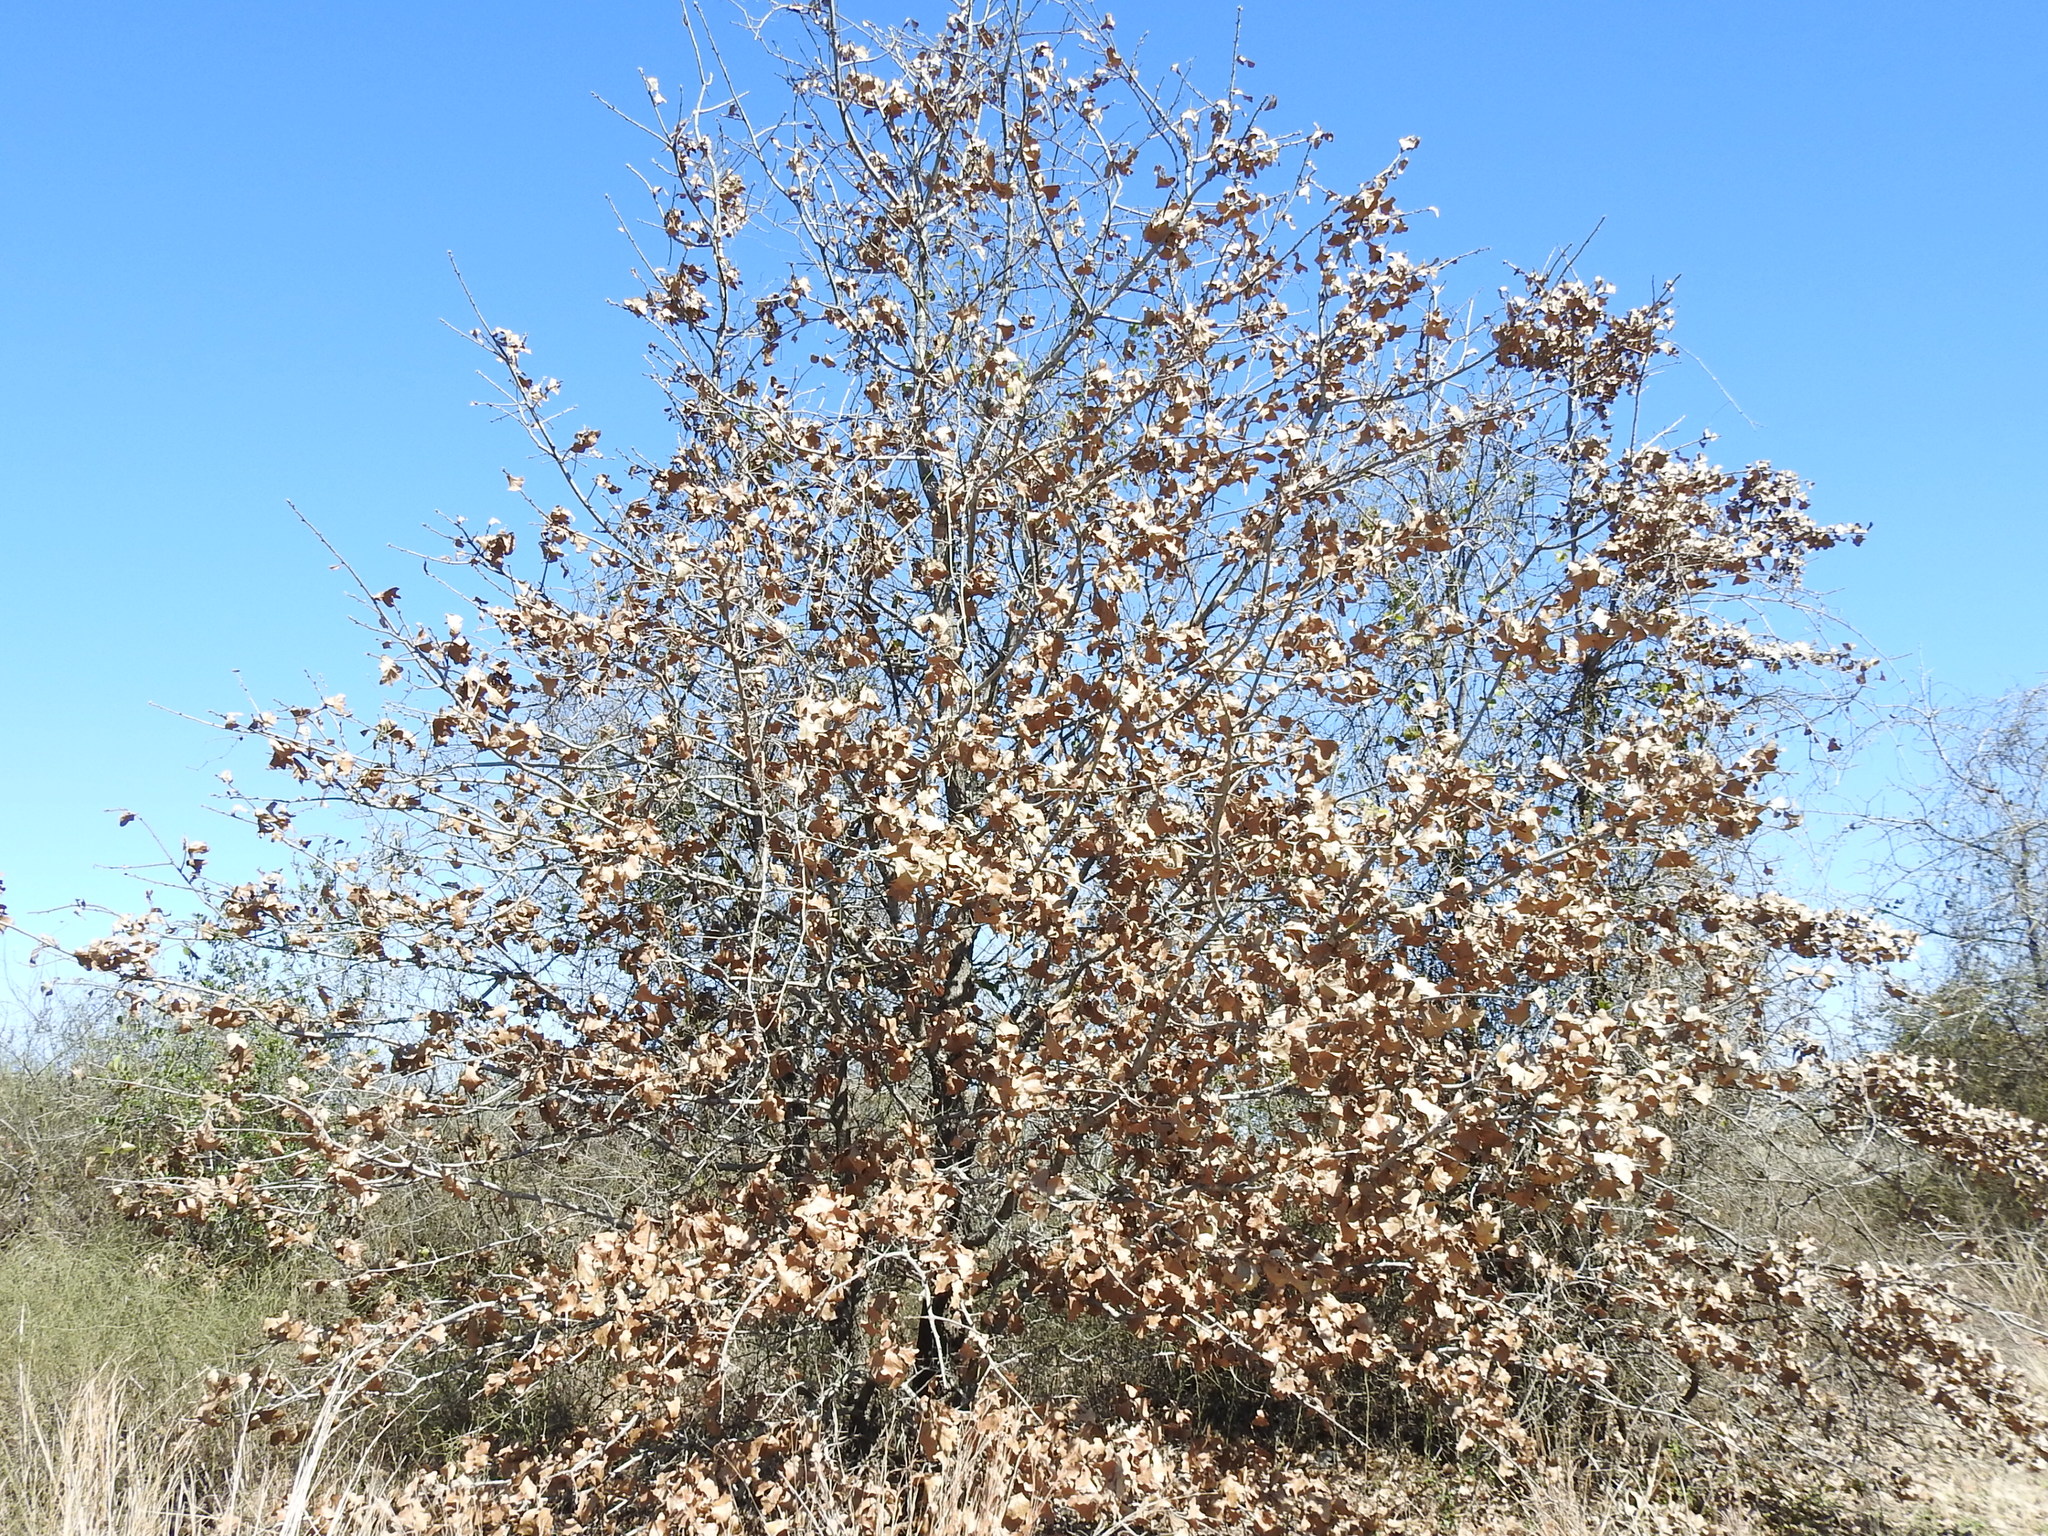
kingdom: Plantae
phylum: Tracheophyta
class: Magnoliopsida
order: Fagales
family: Fagaceae
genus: Quercus
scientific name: Quercus marilandica
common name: Blackjack oak
